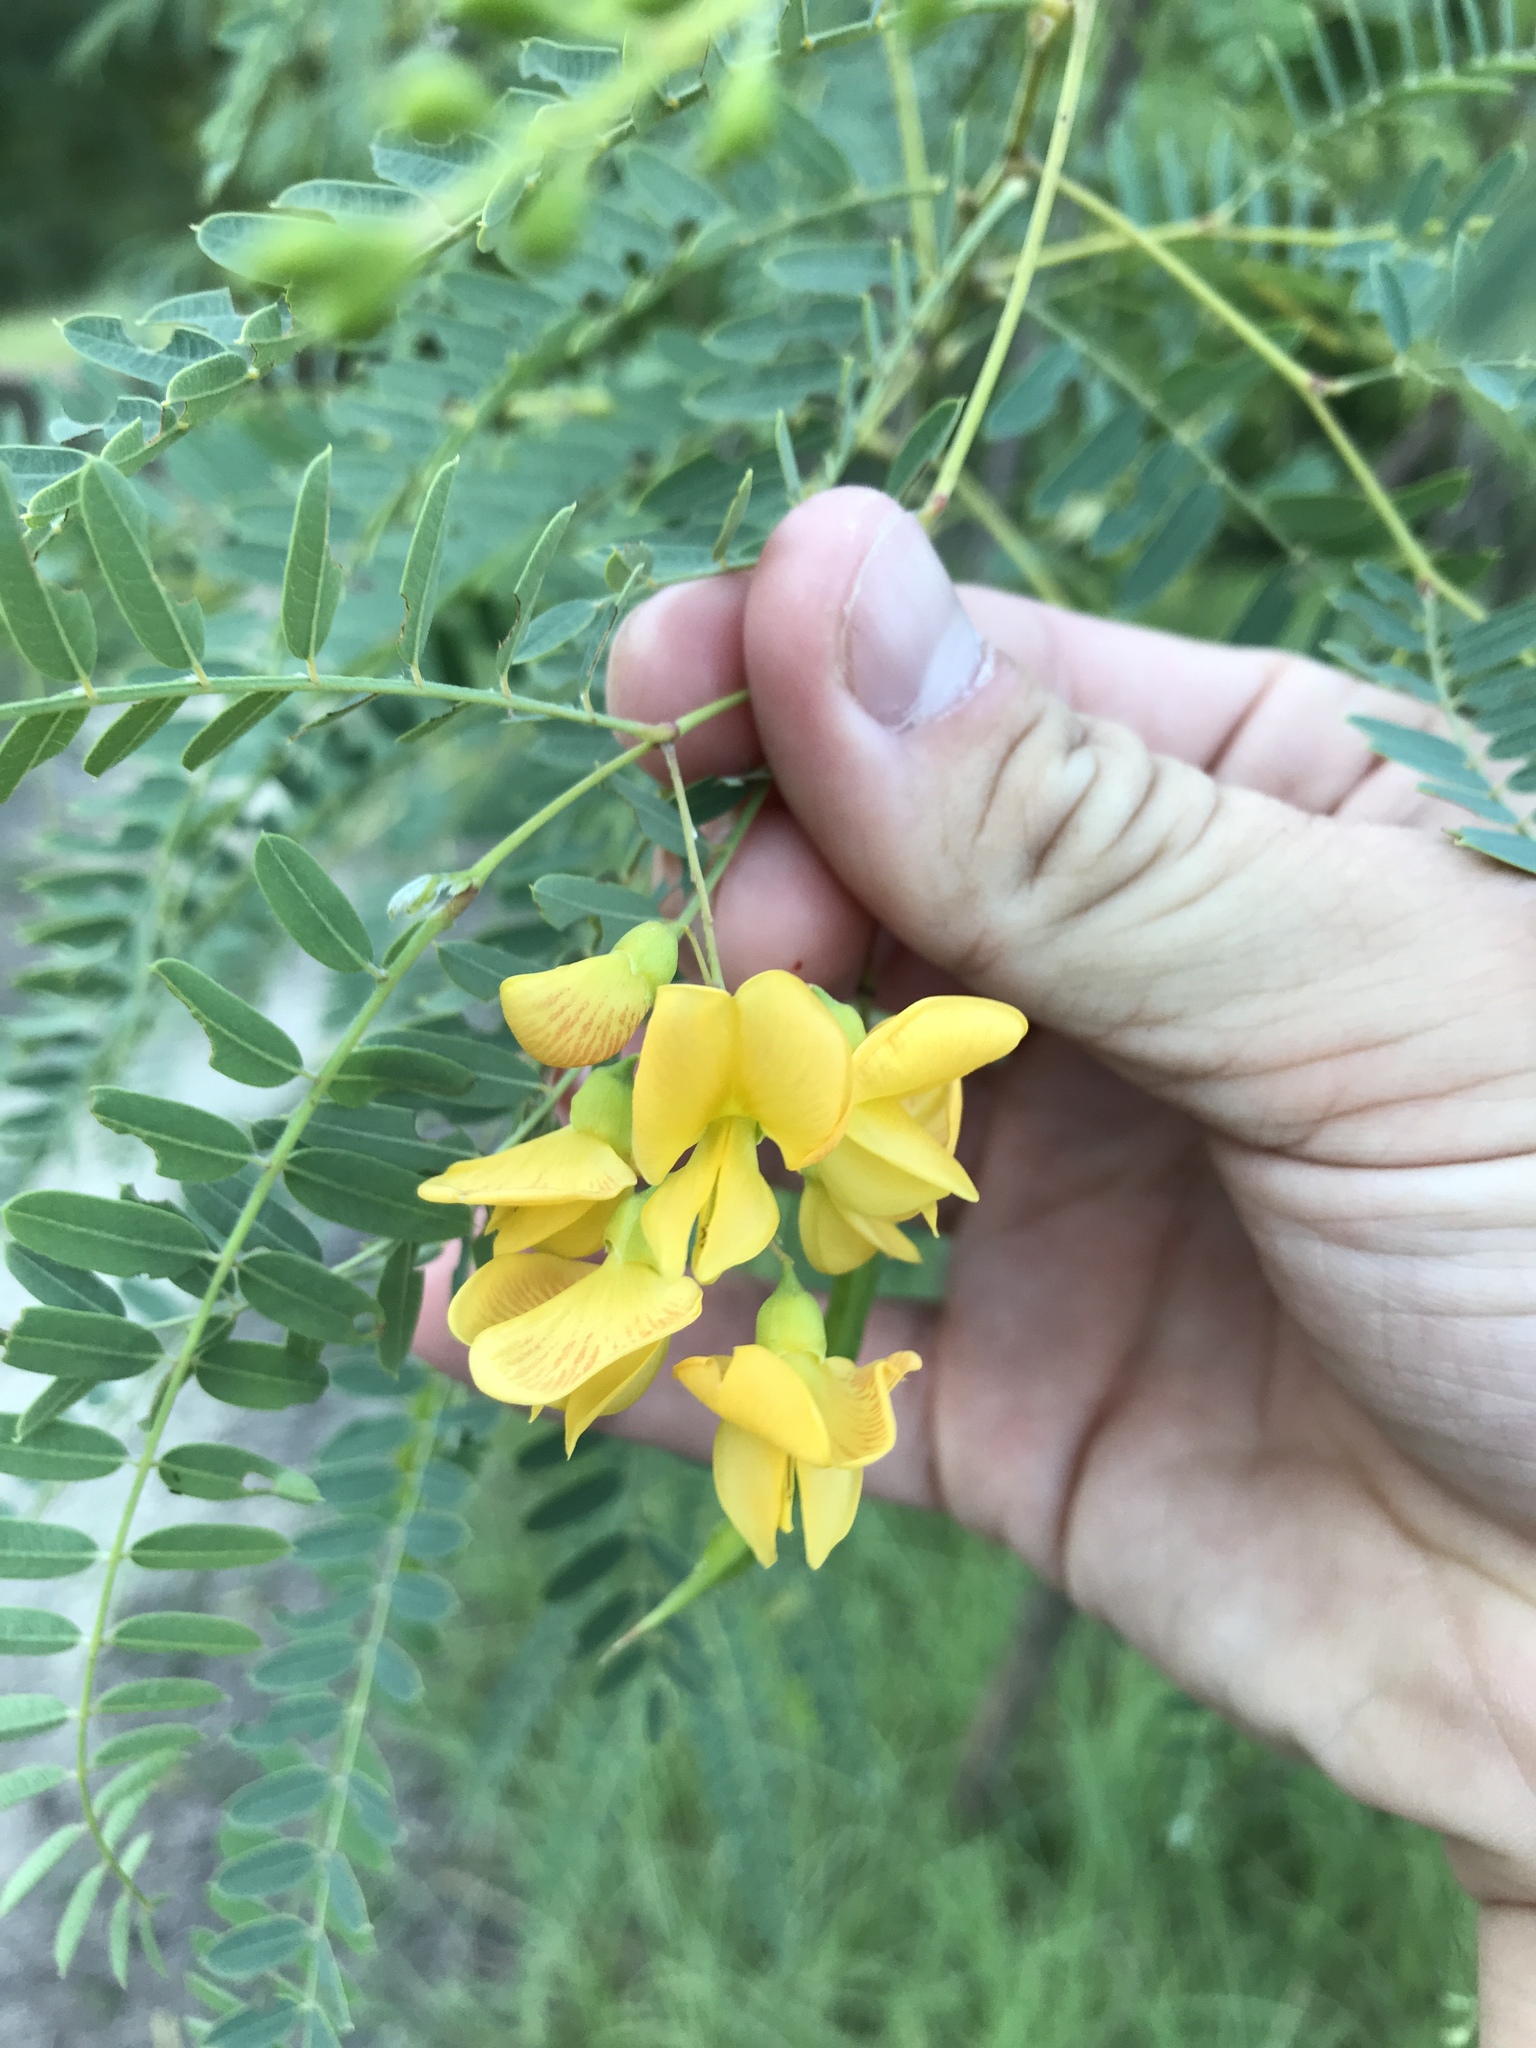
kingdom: Plantae
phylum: Tracheophyta
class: Magnoliopsida
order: Fabales
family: Fabaceae
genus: Sesbania
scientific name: Sesbania drummondii
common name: Poison-bean
